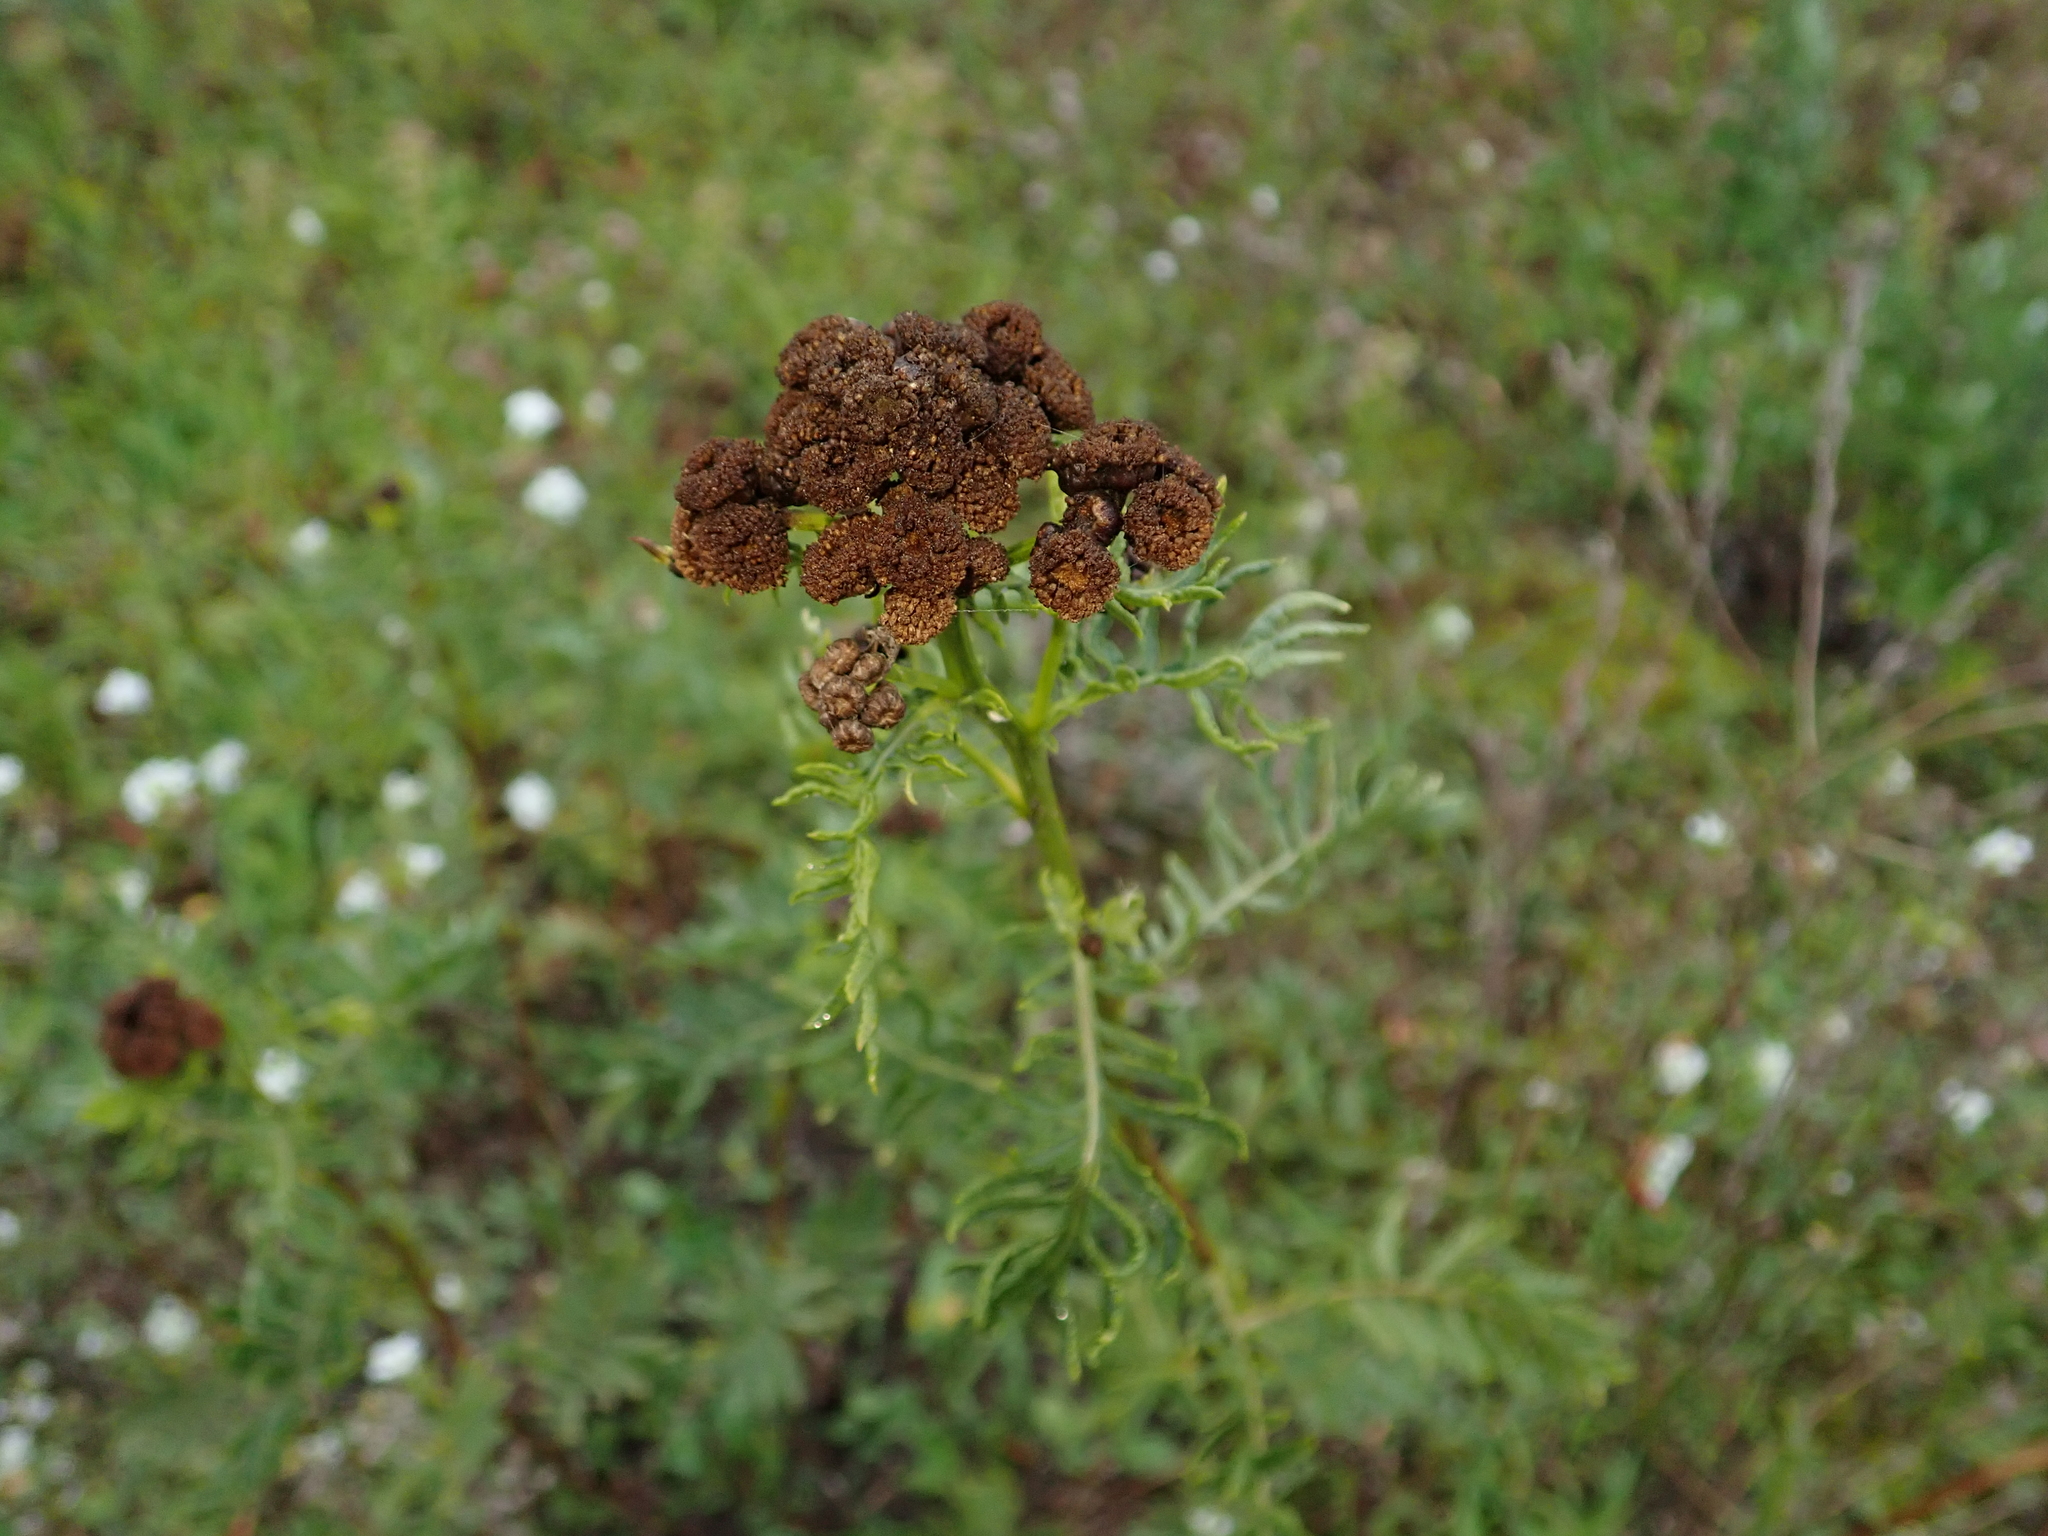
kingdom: Plantae
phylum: Tracheophyta
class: Magnoliopsida
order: Asterales
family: Asteraceae
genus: Tanacetum
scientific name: Tanacetum vulgare
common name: Common tansy
